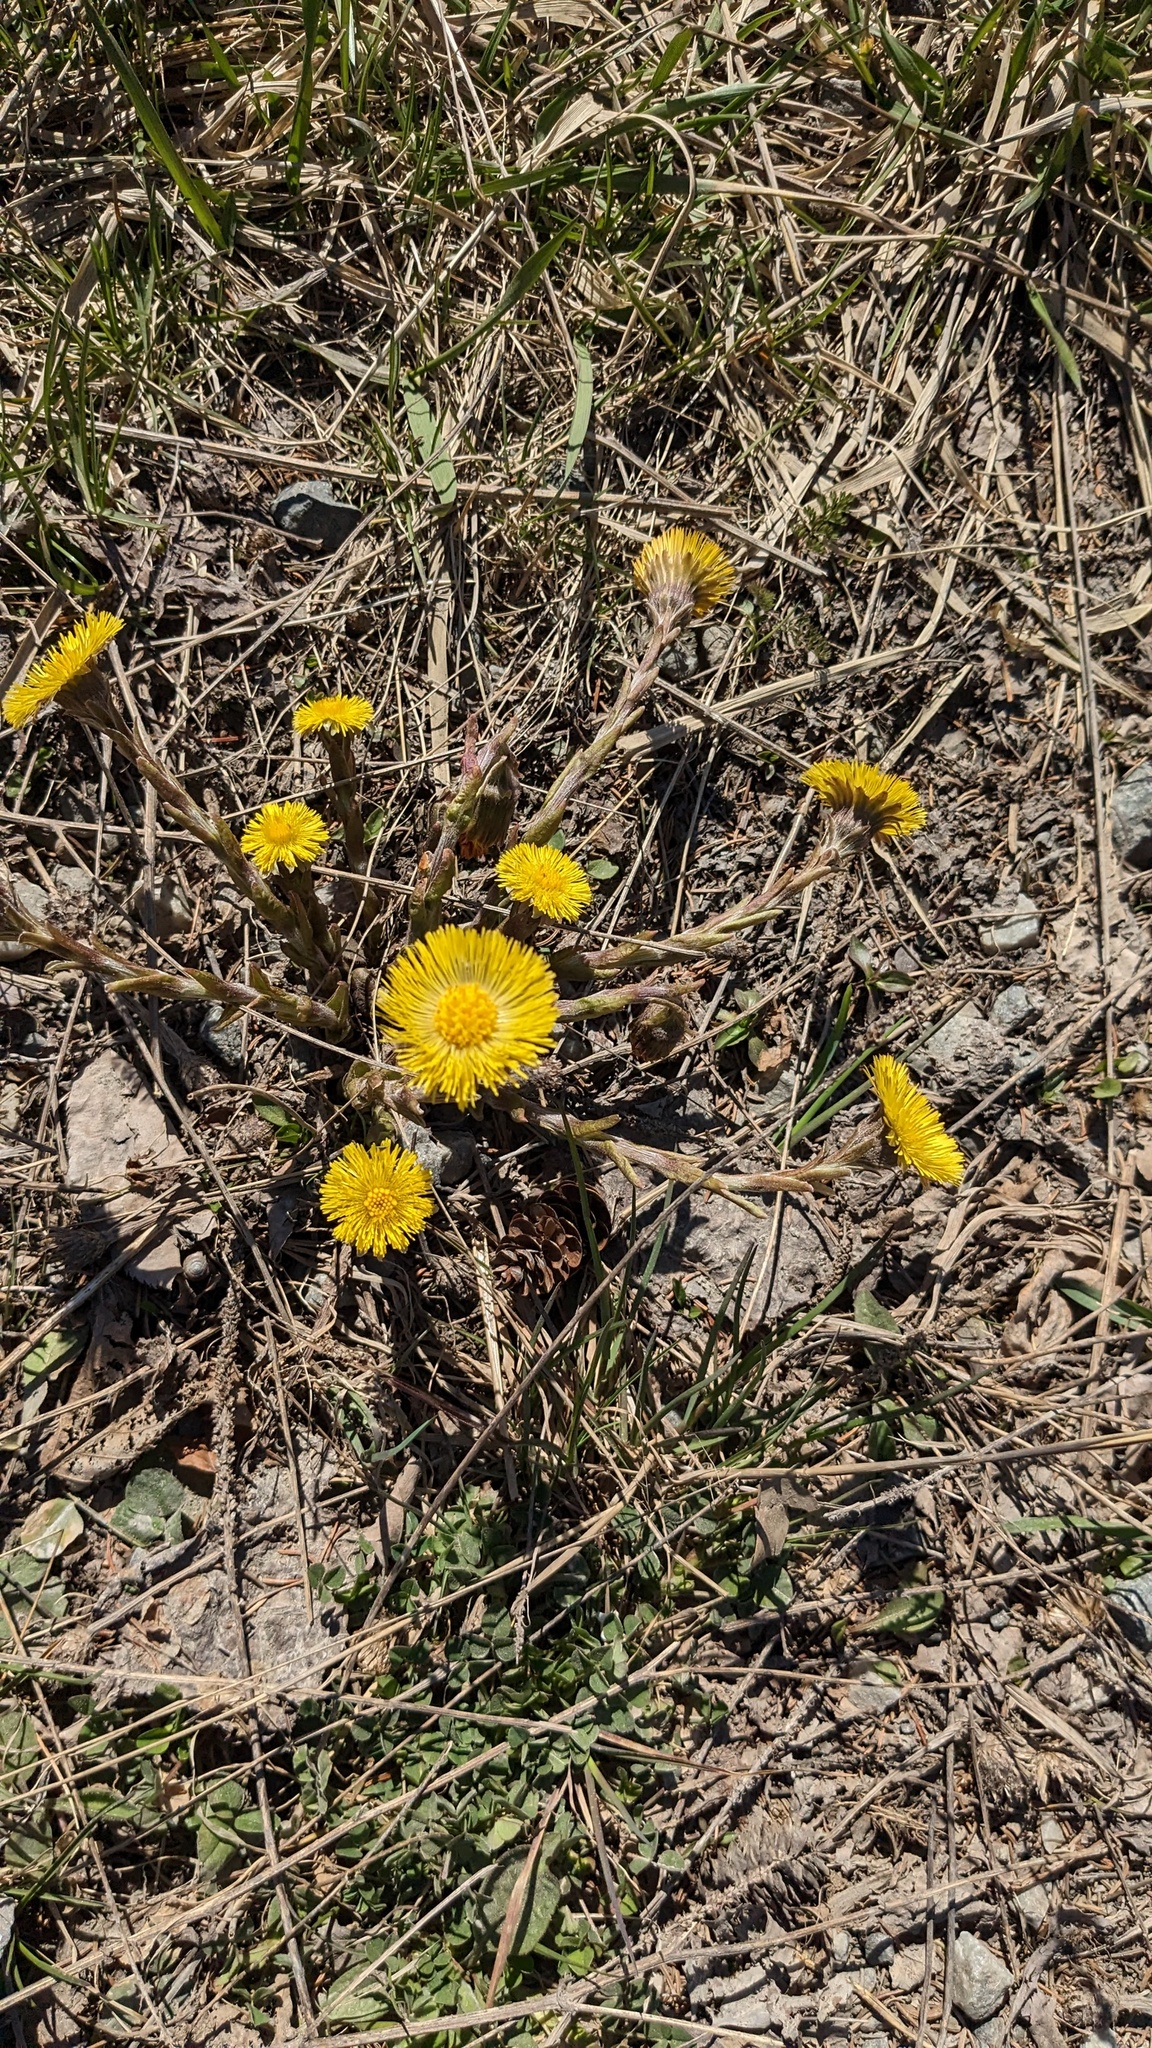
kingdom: Plantae
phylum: Tracheophyta
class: Magnoliopsida
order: Asterales
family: Asteraceae
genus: Tussilago
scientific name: Tussilago farfara
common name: Coltsfoot
